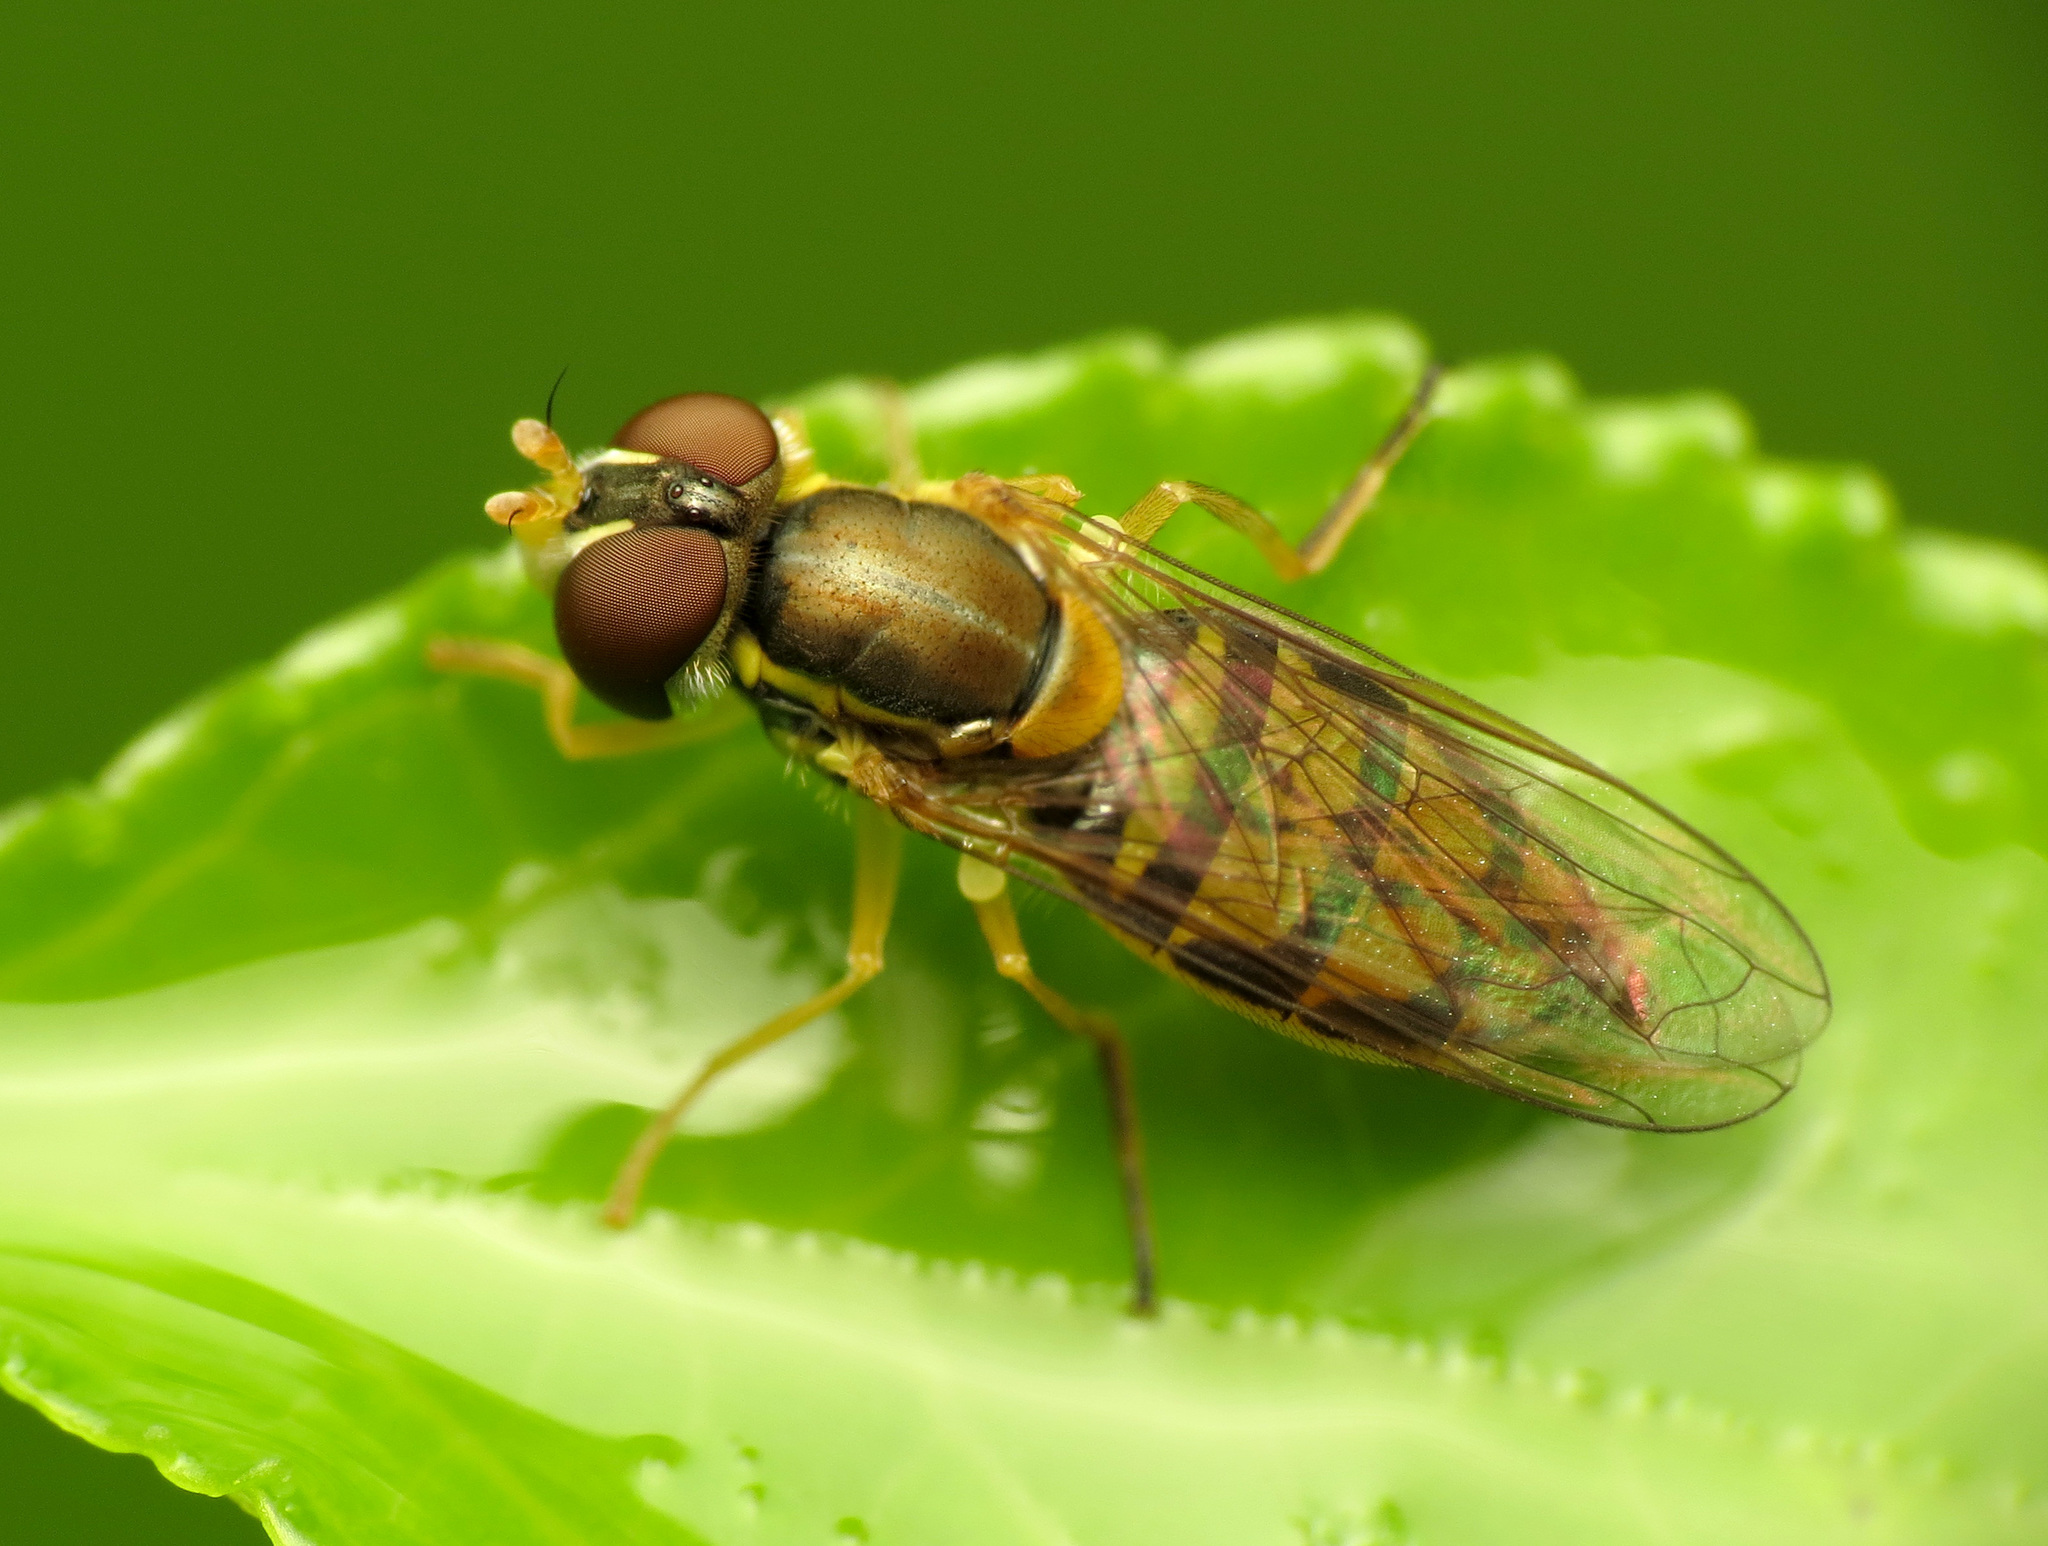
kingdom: Animalia
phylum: Arthropoda
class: Insecta
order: Diptera
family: Syrphidae
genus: Toxomerus
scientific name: Toxomerus marginatus
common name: Syrphid fly
